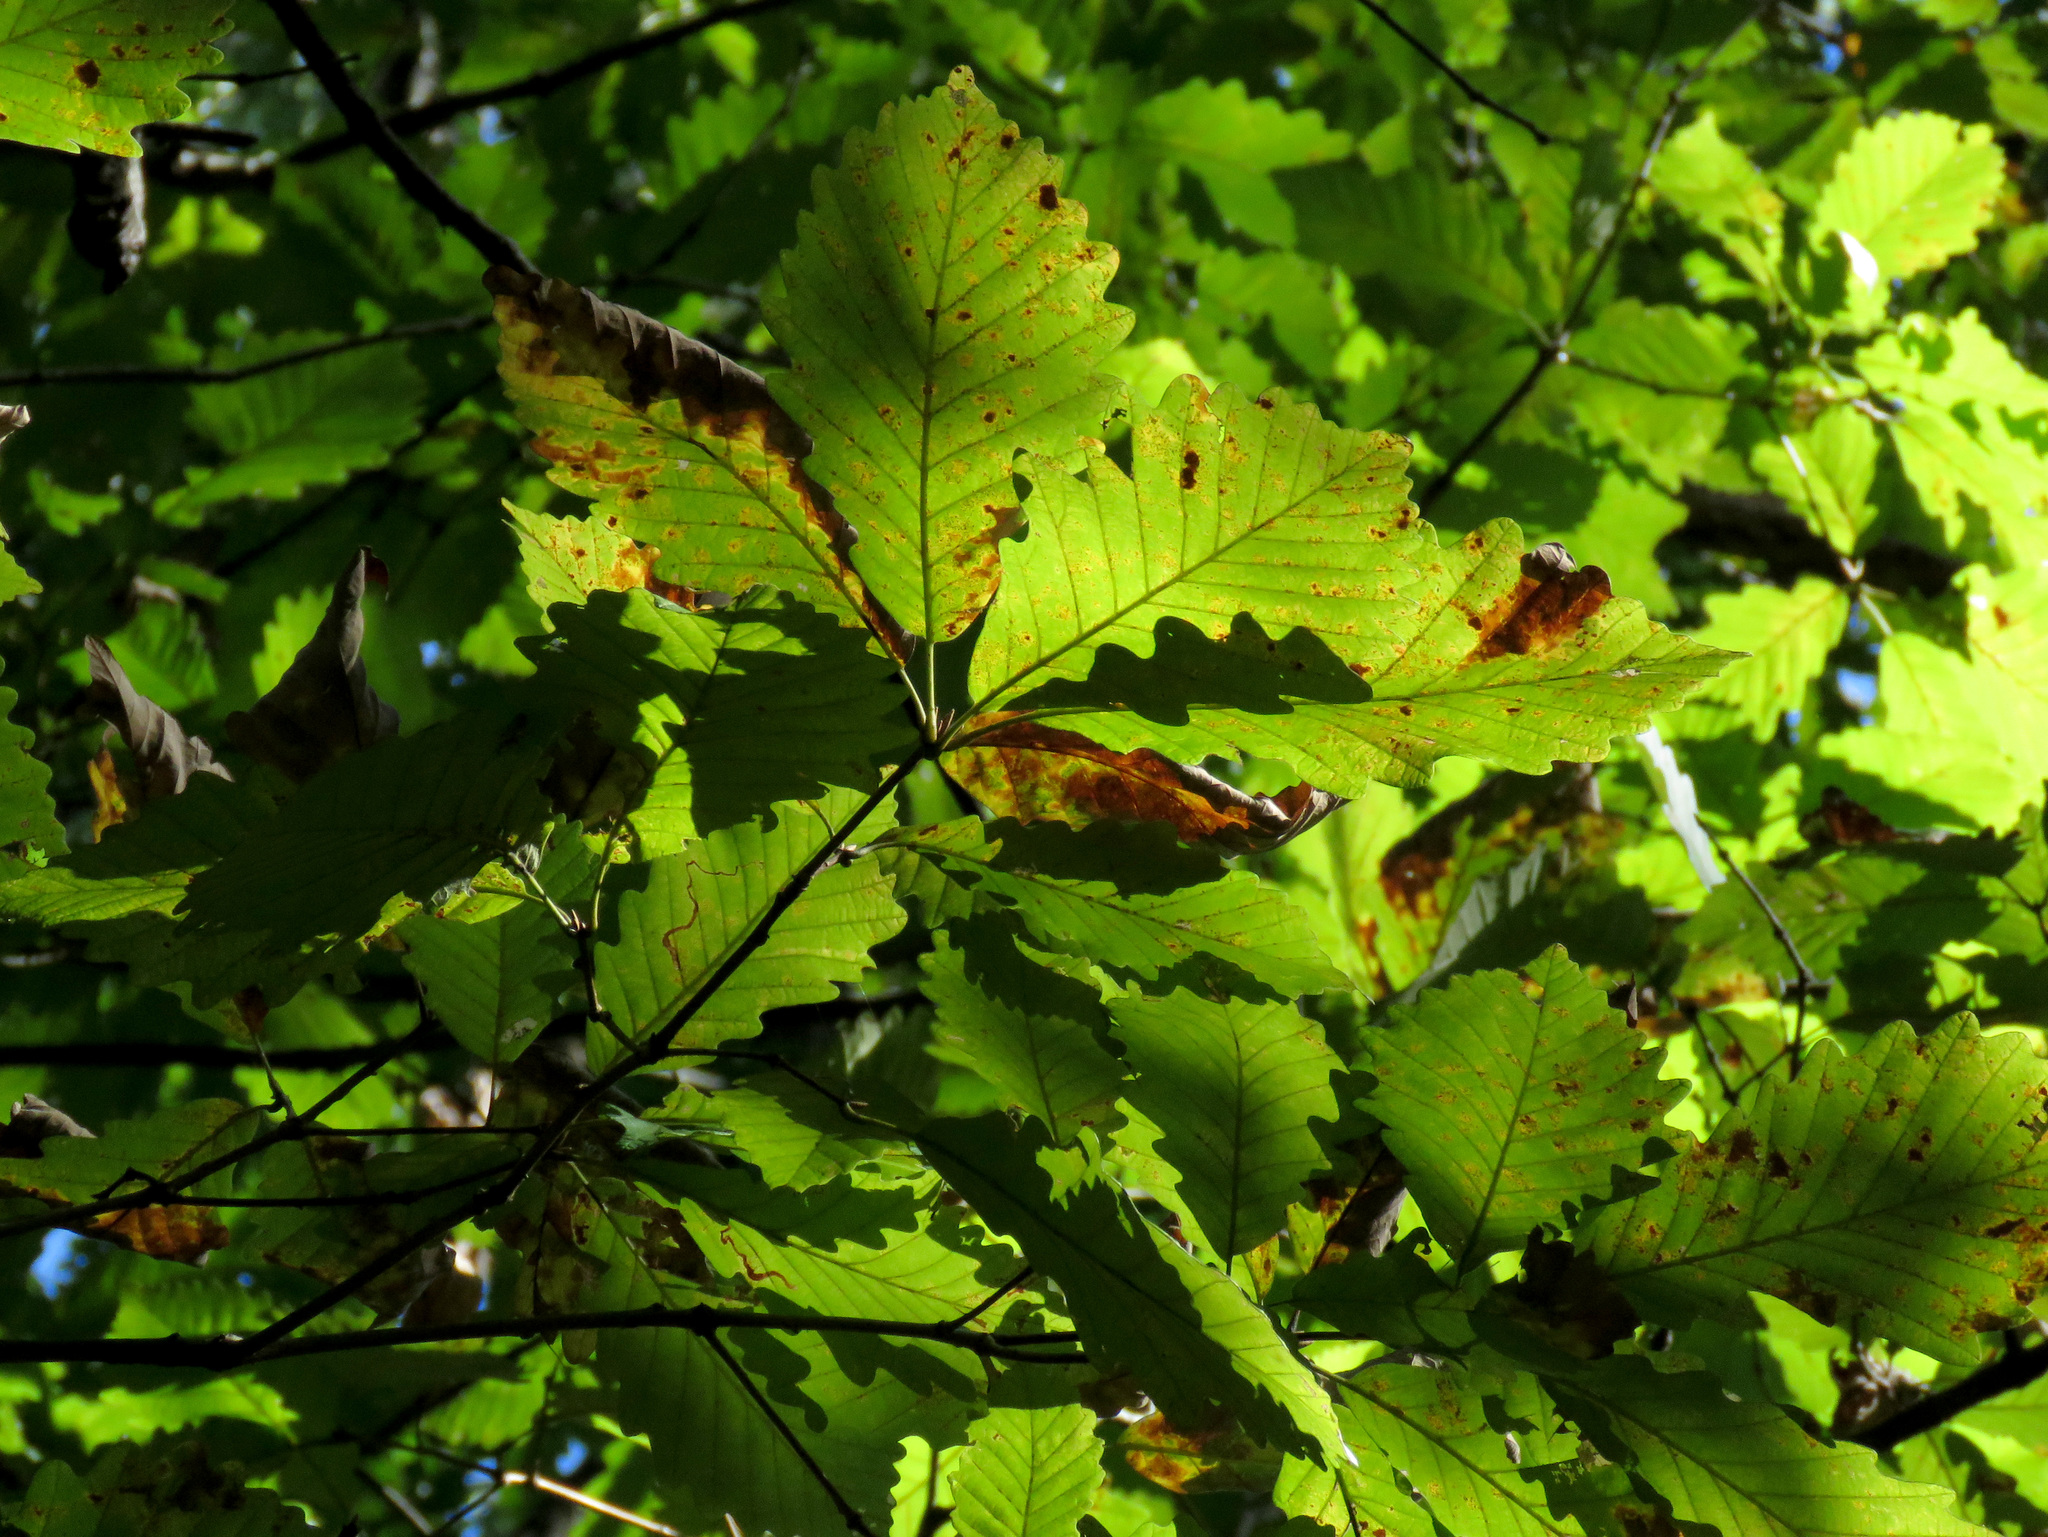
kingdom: Plantae
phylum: Tracheophyta
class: Magnoliopsida
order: Fagales
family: Fagaceae
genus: Quercus
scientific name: Quercus montana
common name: Chestnut oak
